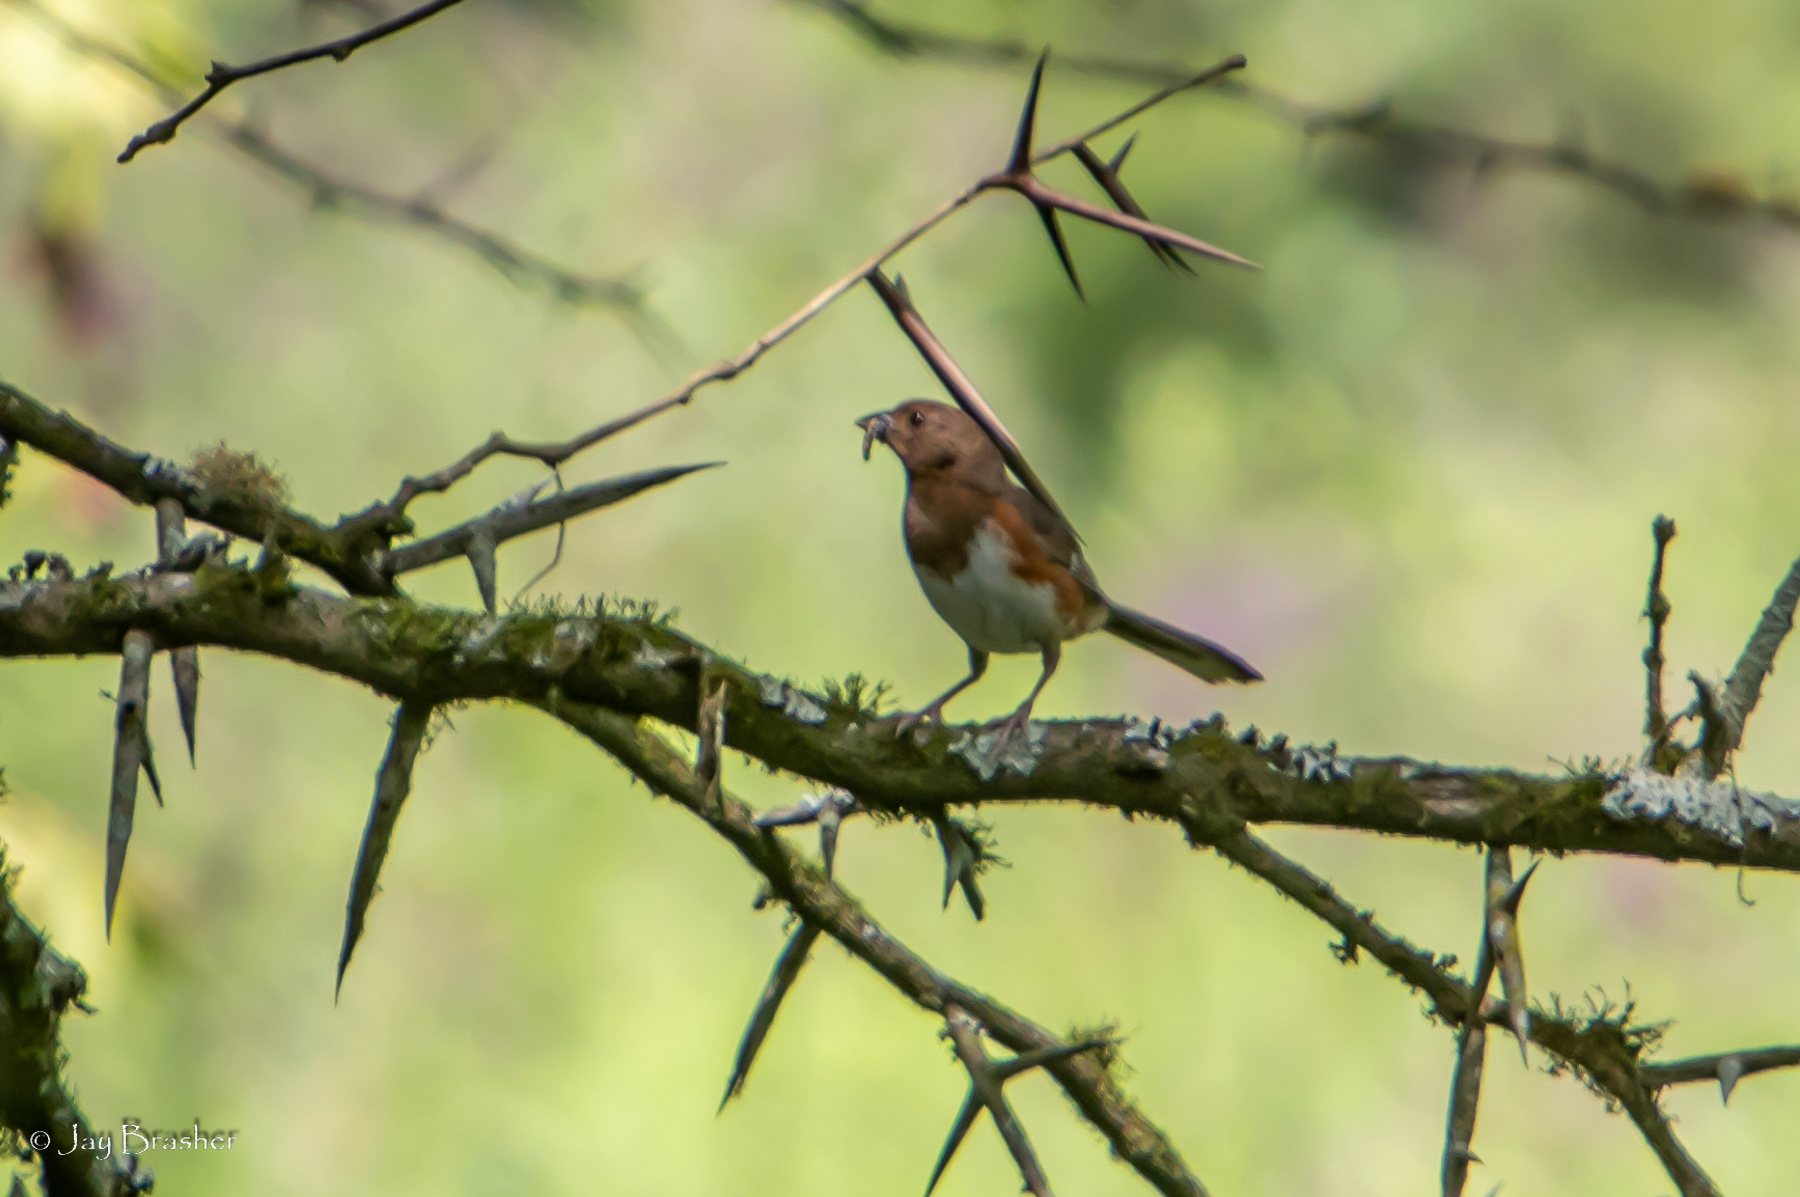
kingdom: Animalia
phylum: Chordata
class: Aves
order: Passeriformes
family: Passerellidae
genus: Pipilo
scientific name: Pipilo erythrophthalmus
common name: Eastern towhee
